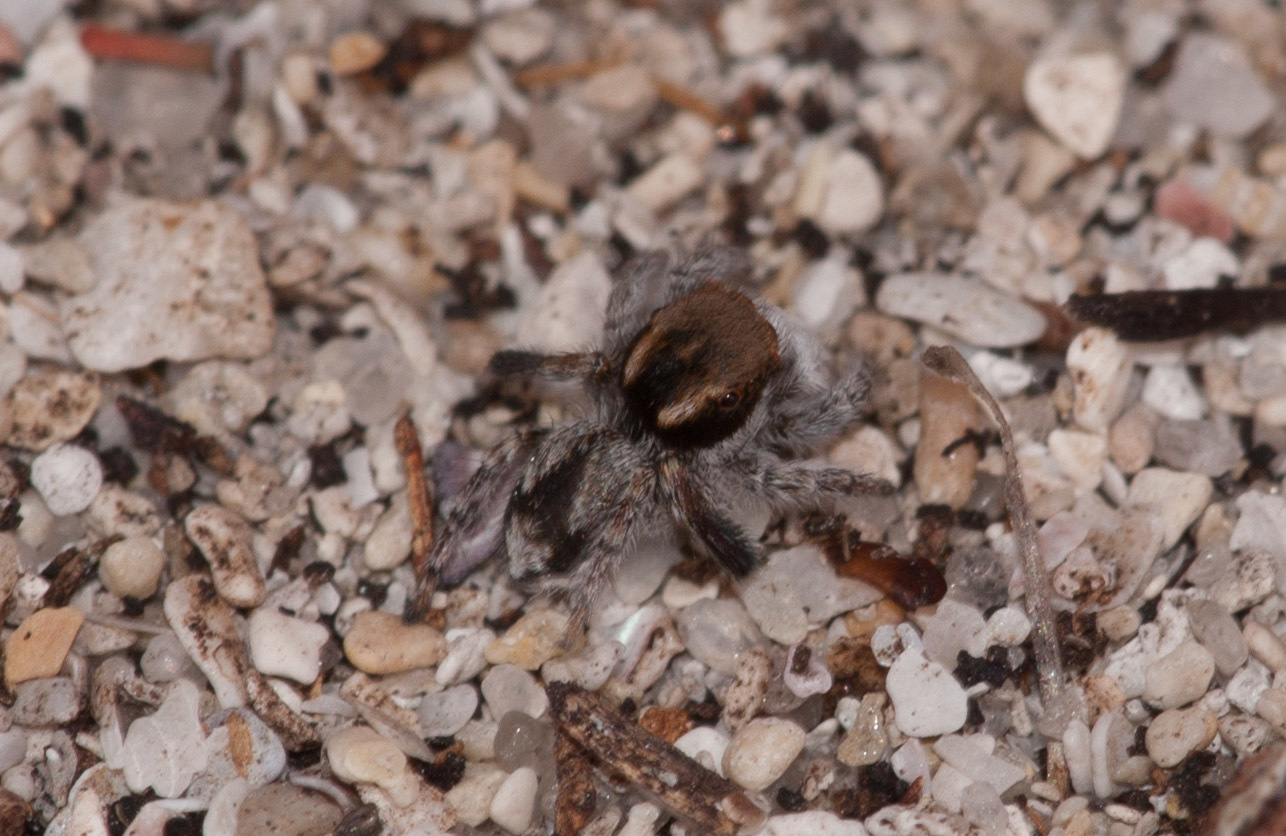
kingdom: Animalia
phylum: Arthropoda
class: Arachnida
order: Araneae
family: Salticidae
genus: Maratus
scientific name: Maratus albus
